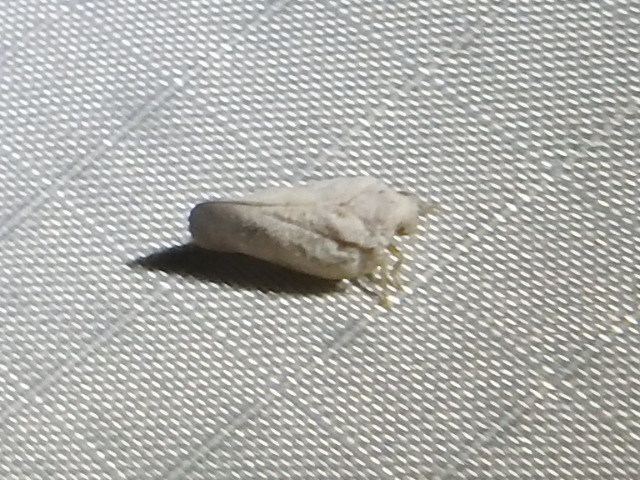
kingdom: Animalia
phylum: Arthropoda
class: Insecta
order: Hemiptera
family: Flatidae
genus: Metcalfa
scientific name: Metcalfa pruinosa
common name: Citrus flatid planthopper
